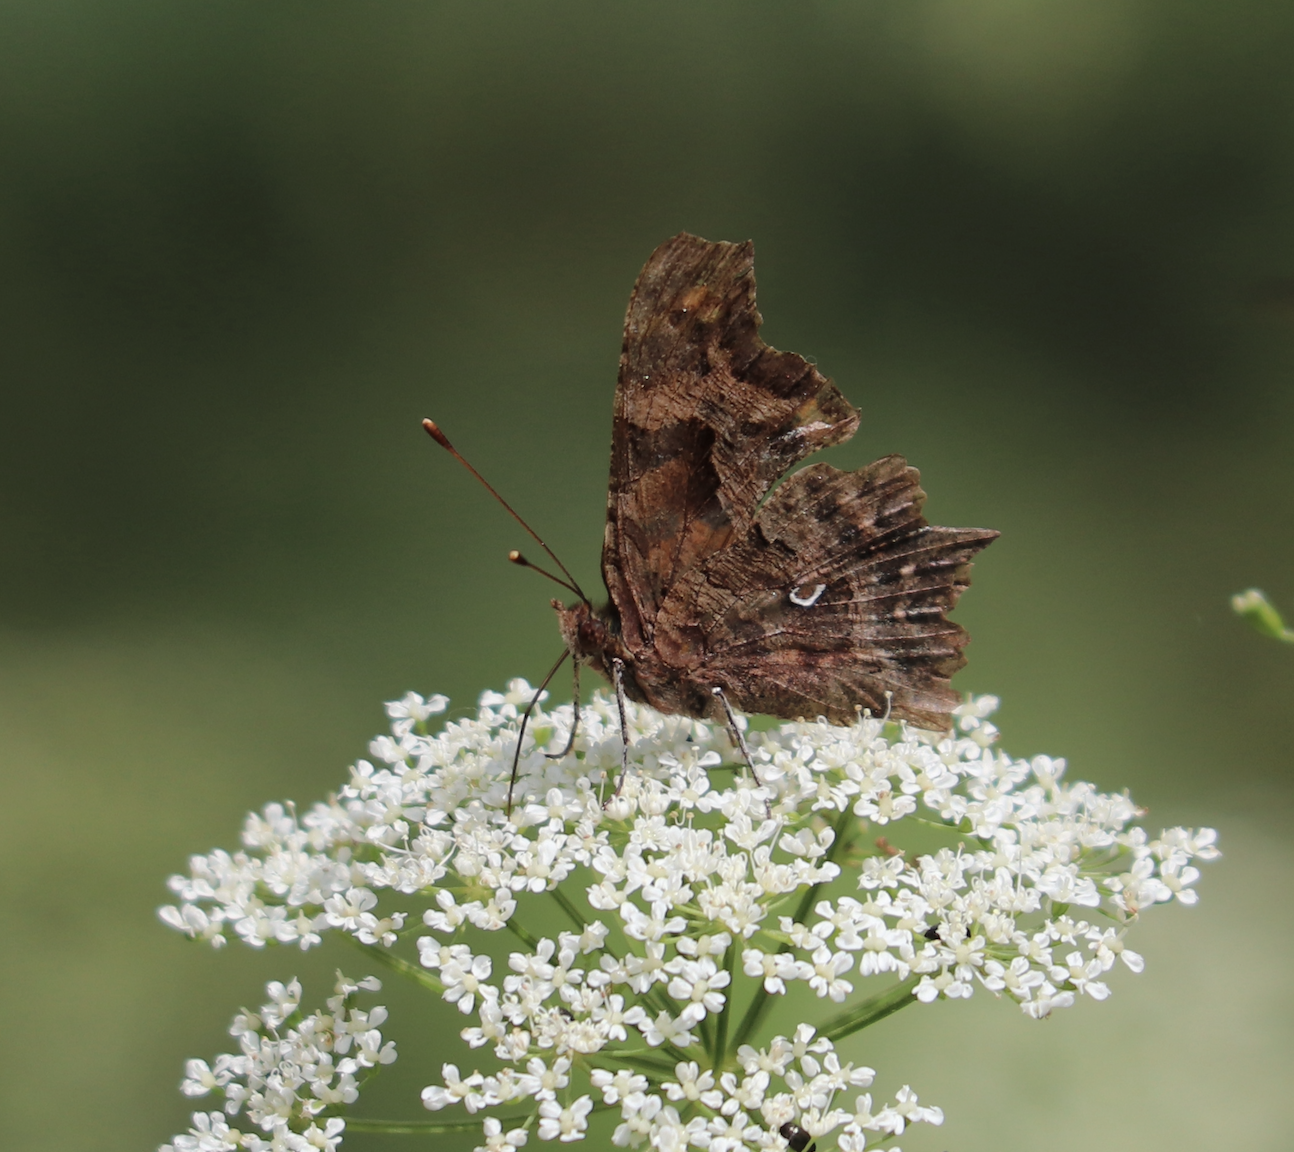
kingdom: Animalia
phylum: Arthropoda
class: Insecta
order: Lepidoptera
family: Nymphalidae
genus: Polygonia
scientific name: Polygonia c-album
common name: Comma
